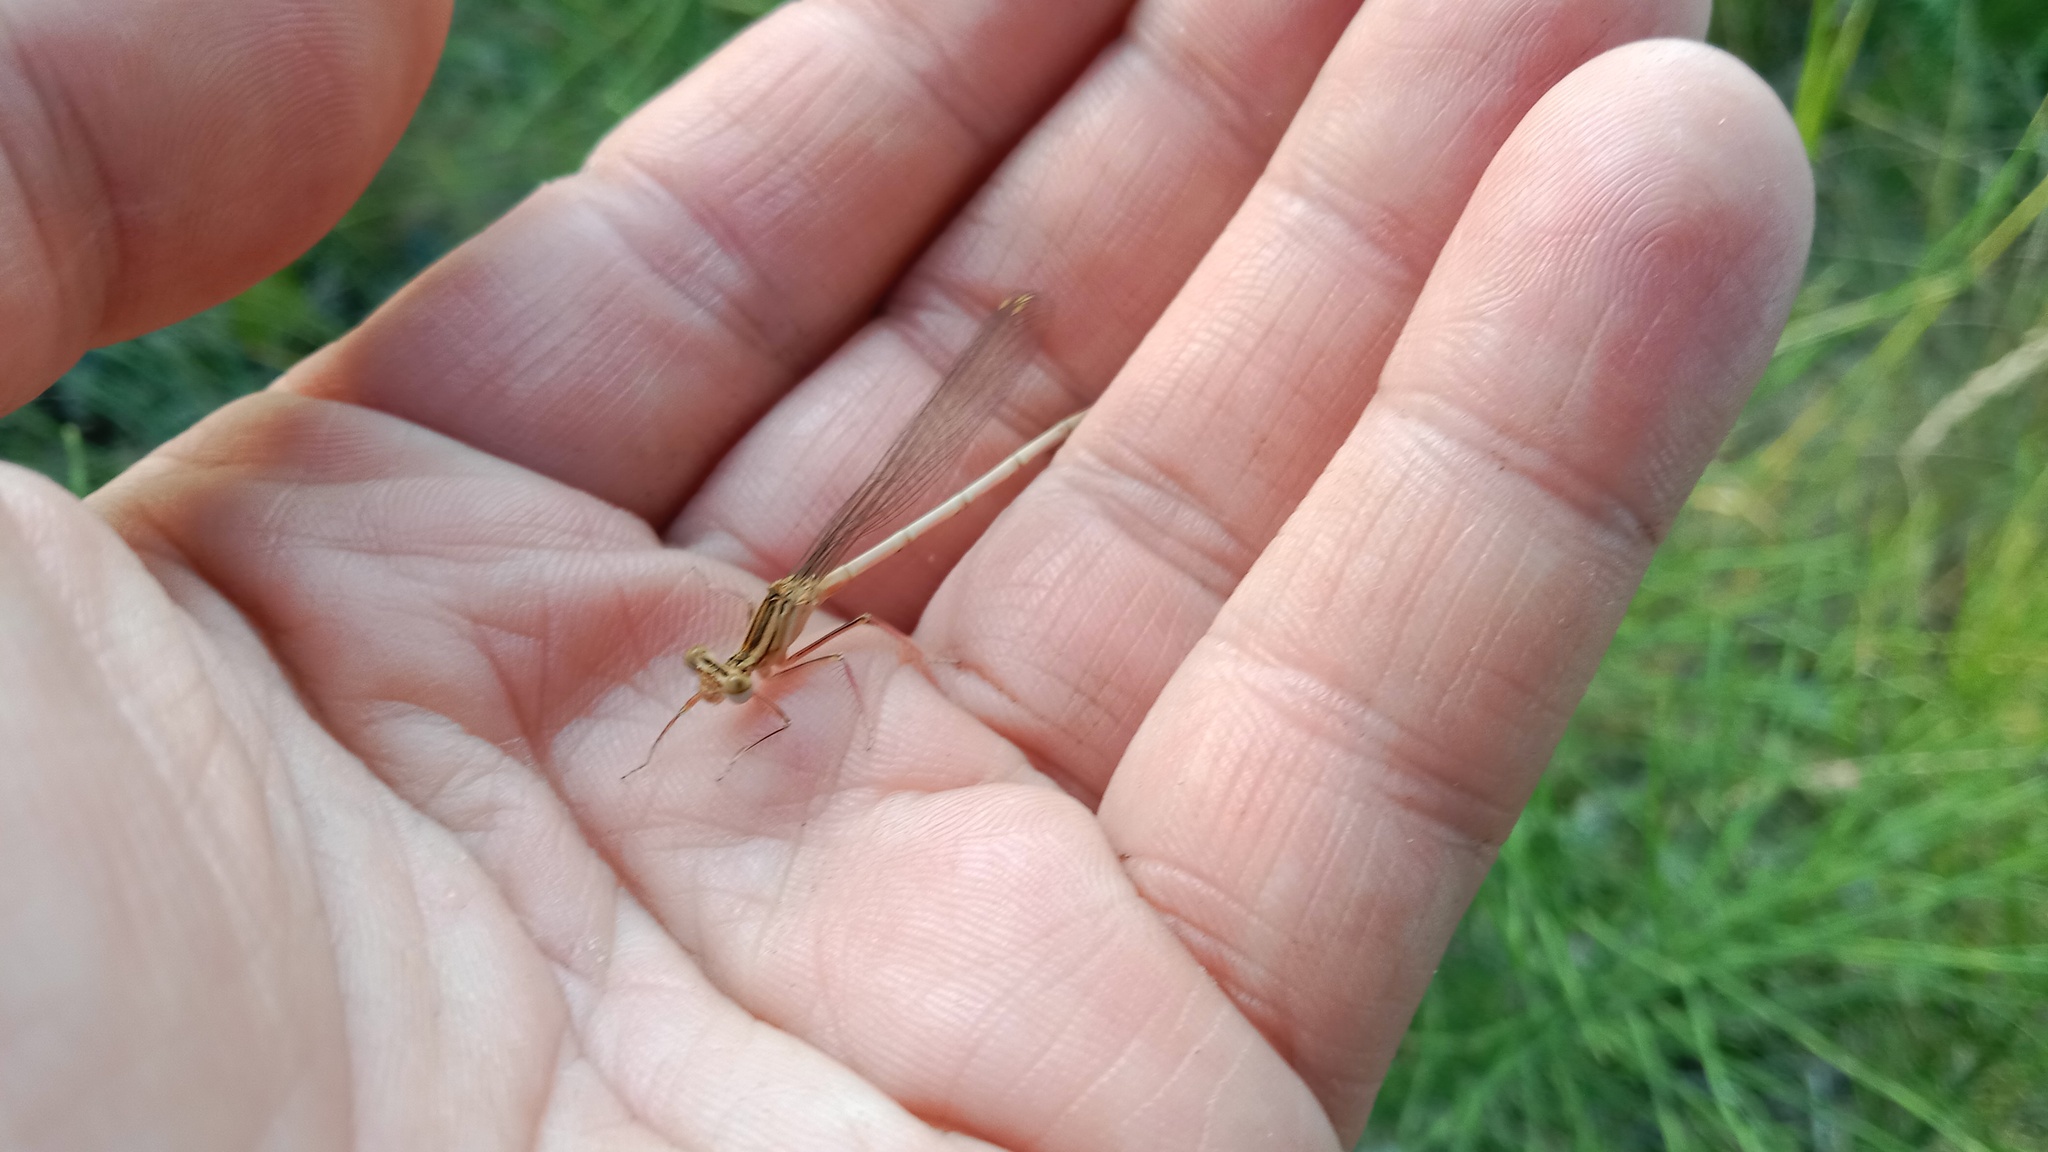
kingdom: Animalia
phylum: Arthropoda
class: Insecta
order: Odonata
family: Platycnemididae
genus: Platycnemis
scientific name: Platycnemis pennipes
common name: White-legged damselfly
